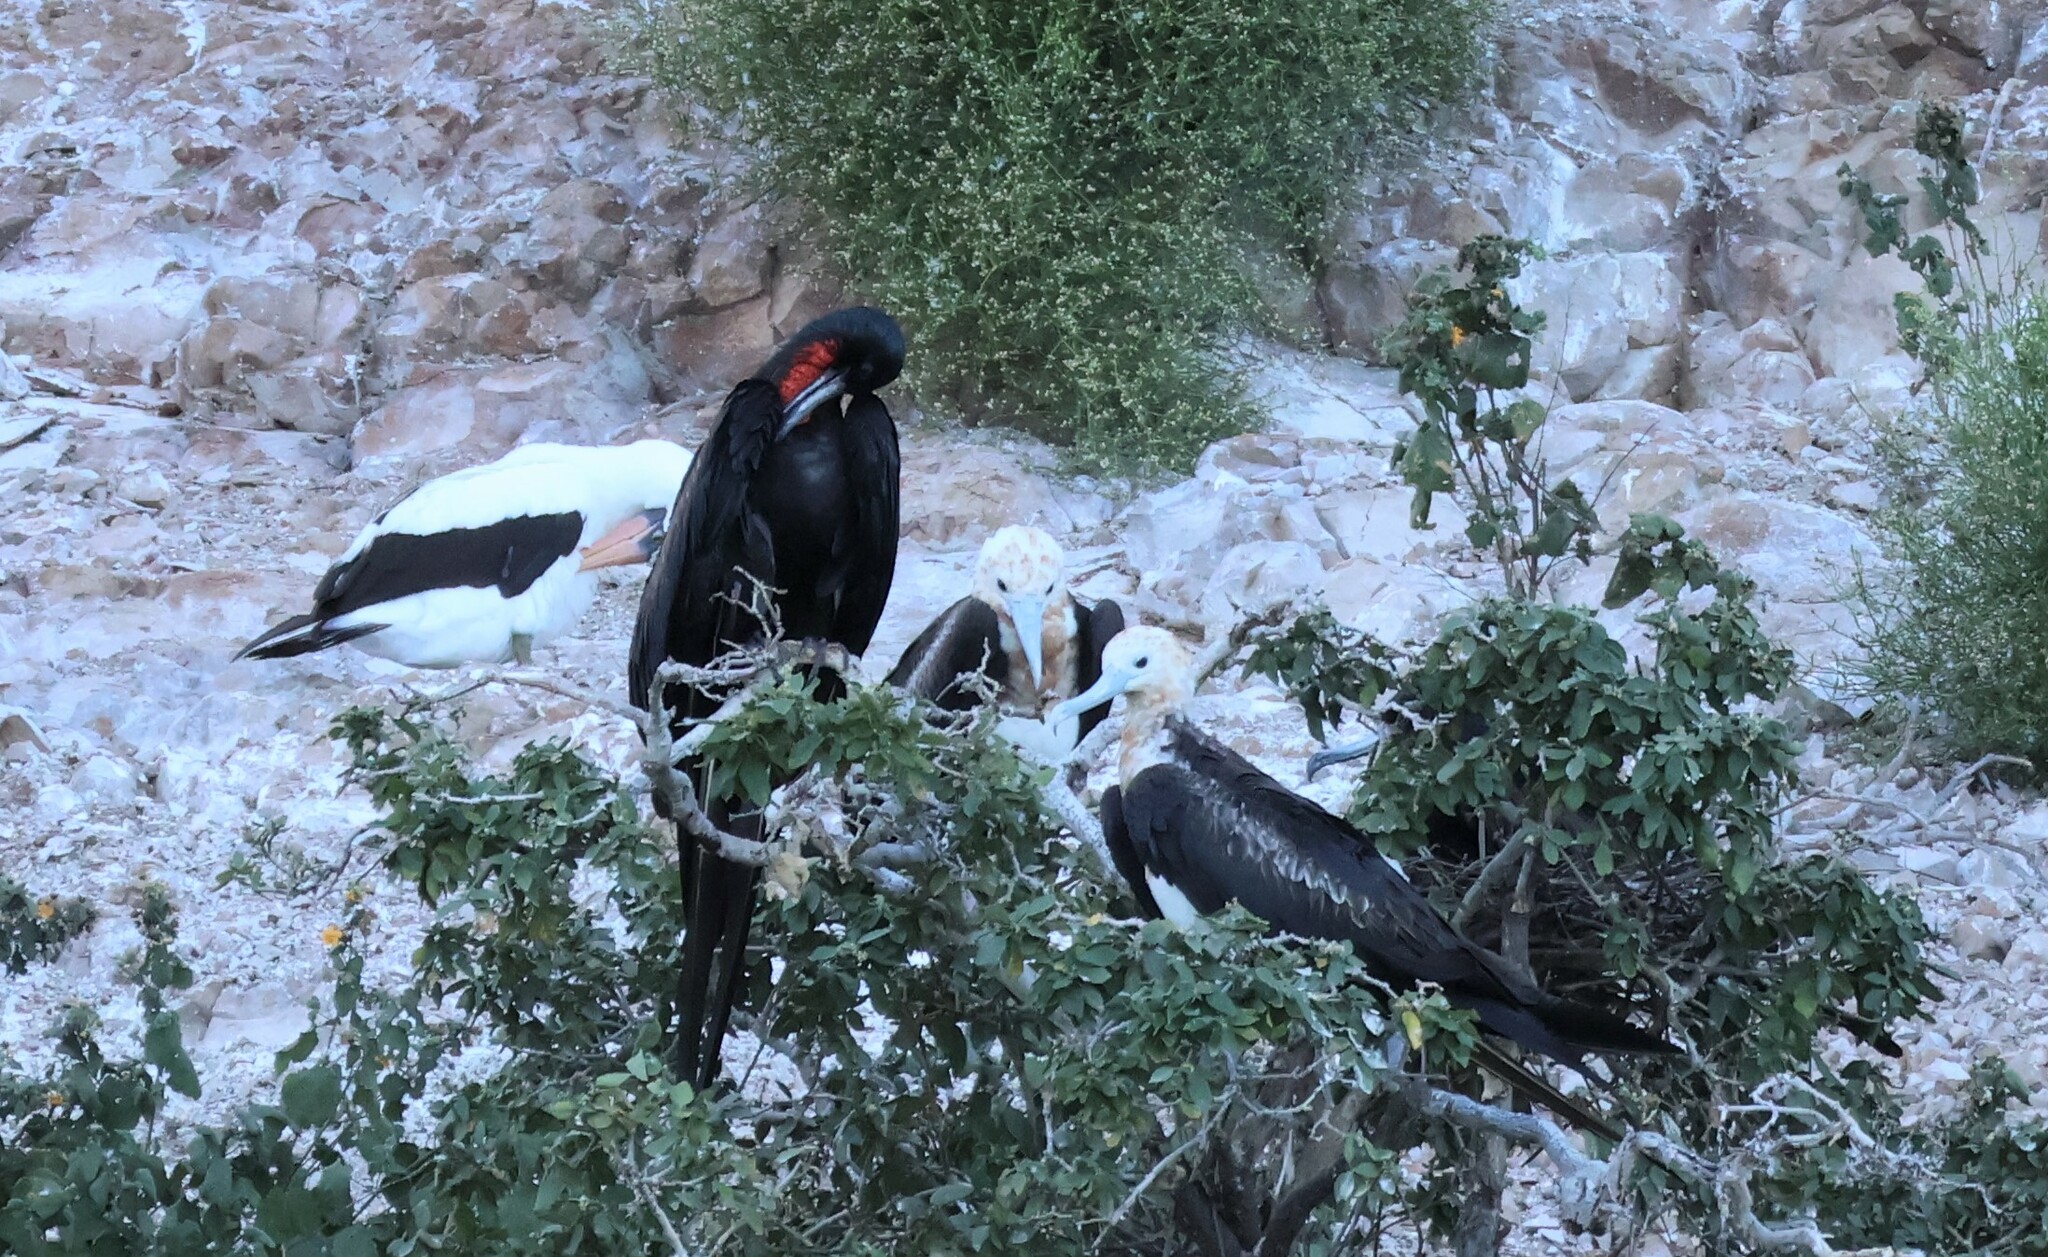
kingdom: Animalia
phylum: Chordata
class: Aves
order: Suliformes
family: Fregatidae
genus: Fregata
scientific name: Fregata minor
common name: Great frigatebird
